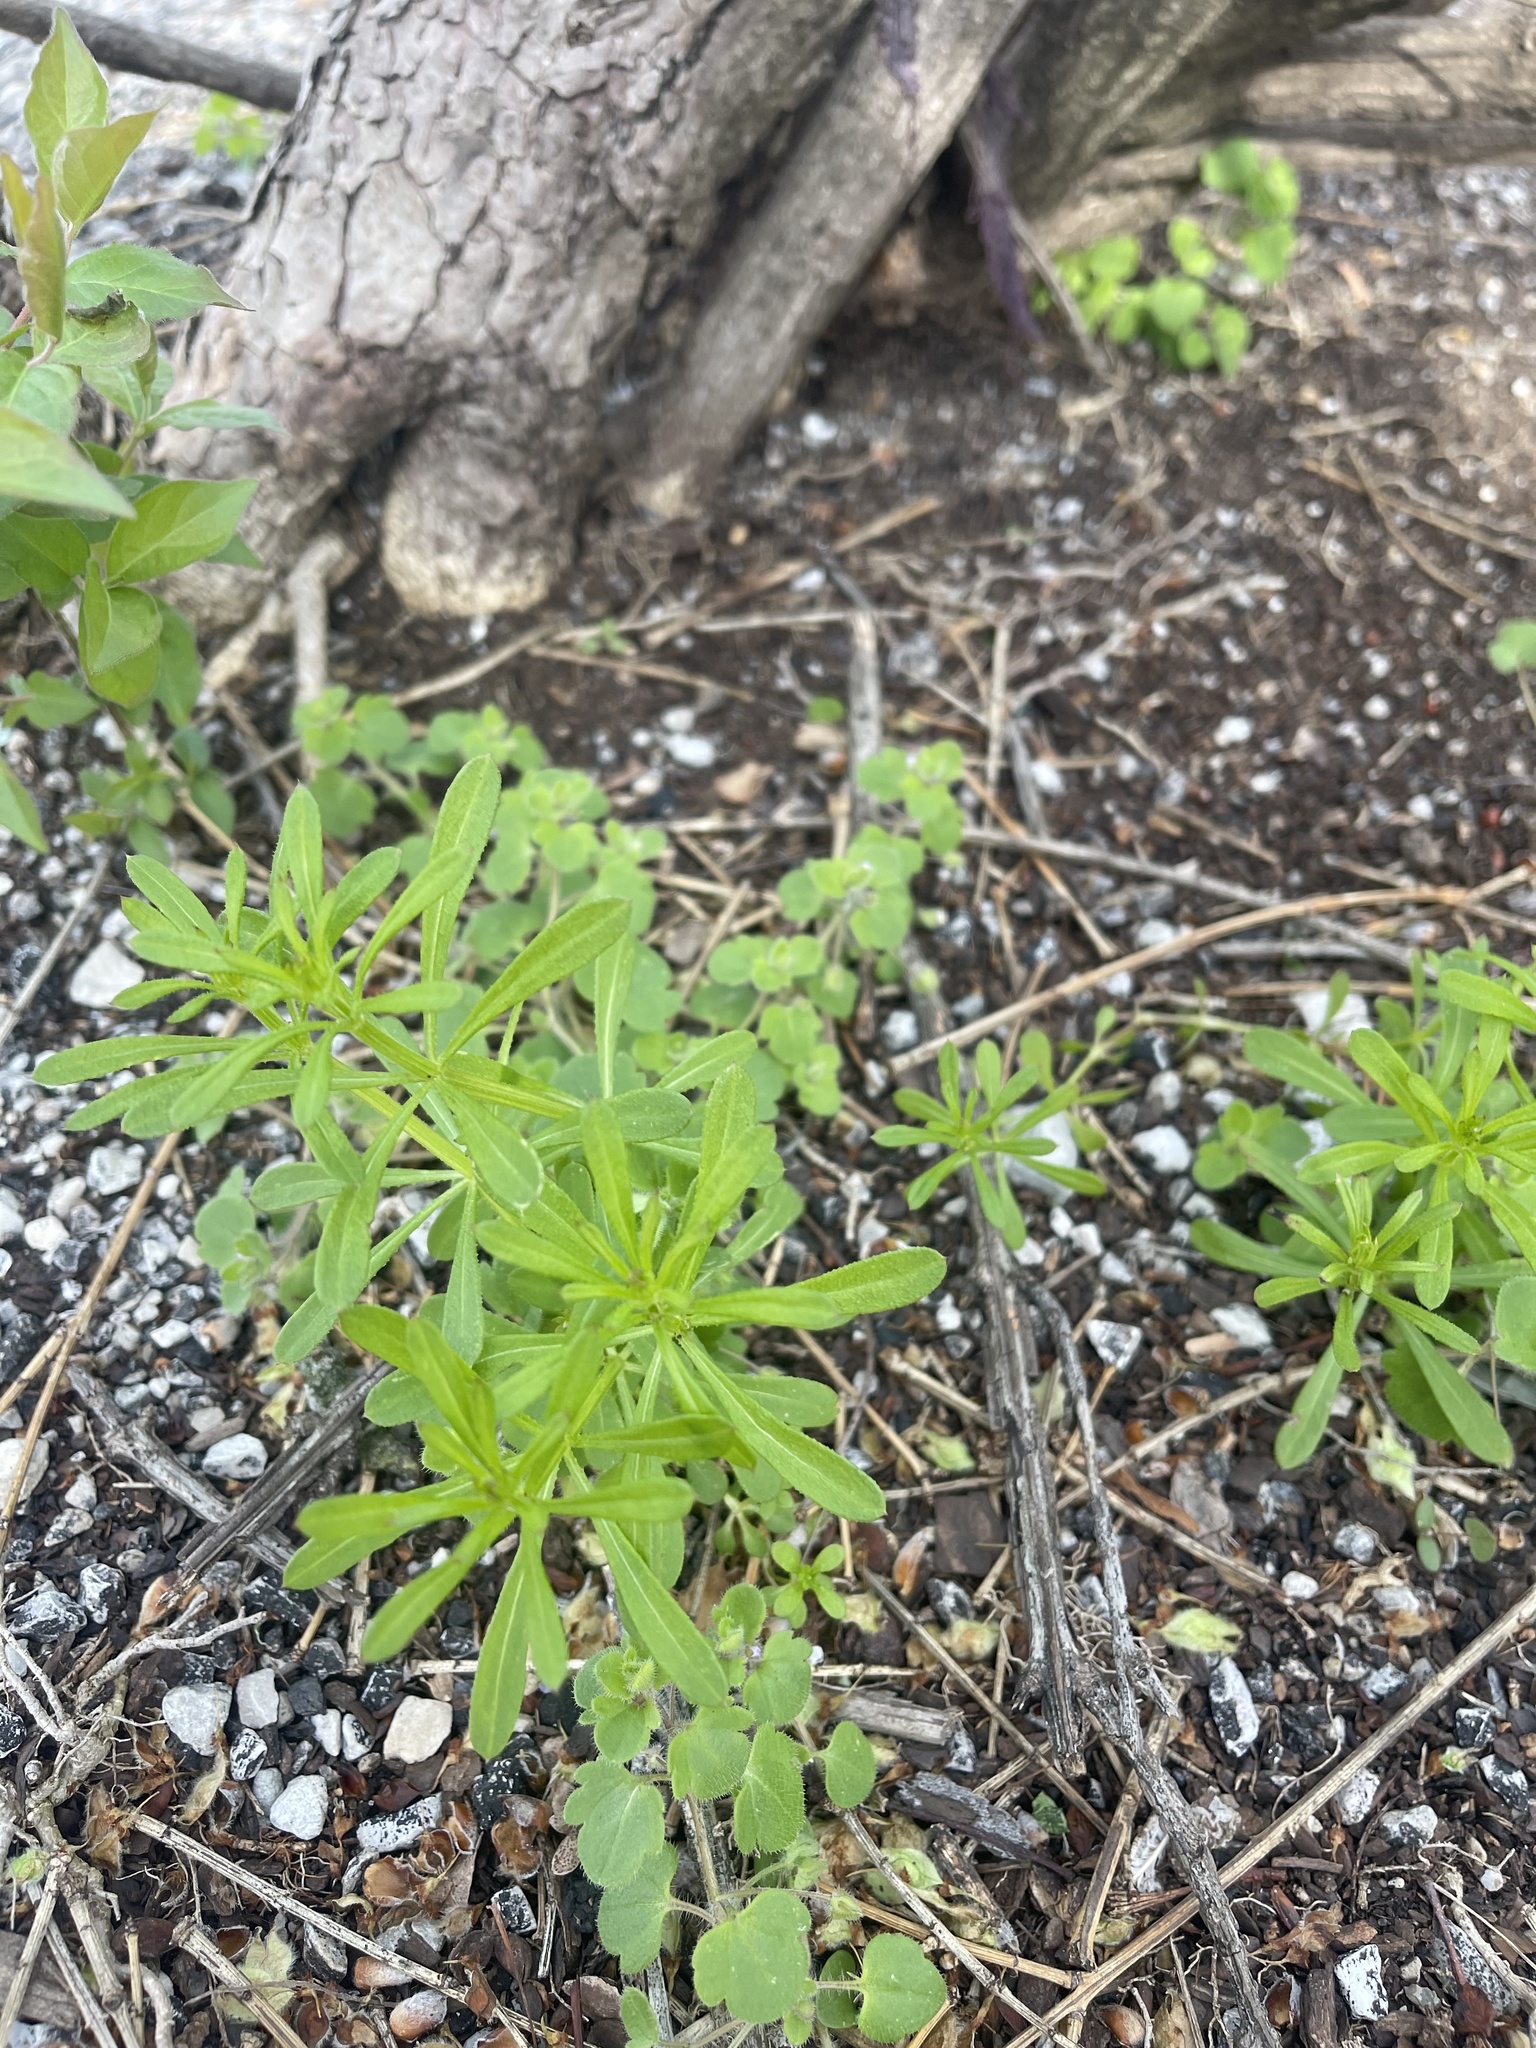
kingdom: Plantae
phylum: Tracheophyta
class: Magnoliopsida
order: Gentianales
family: Rubiaceae
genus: Galium
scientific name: Galium aparine
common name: Cleavers
